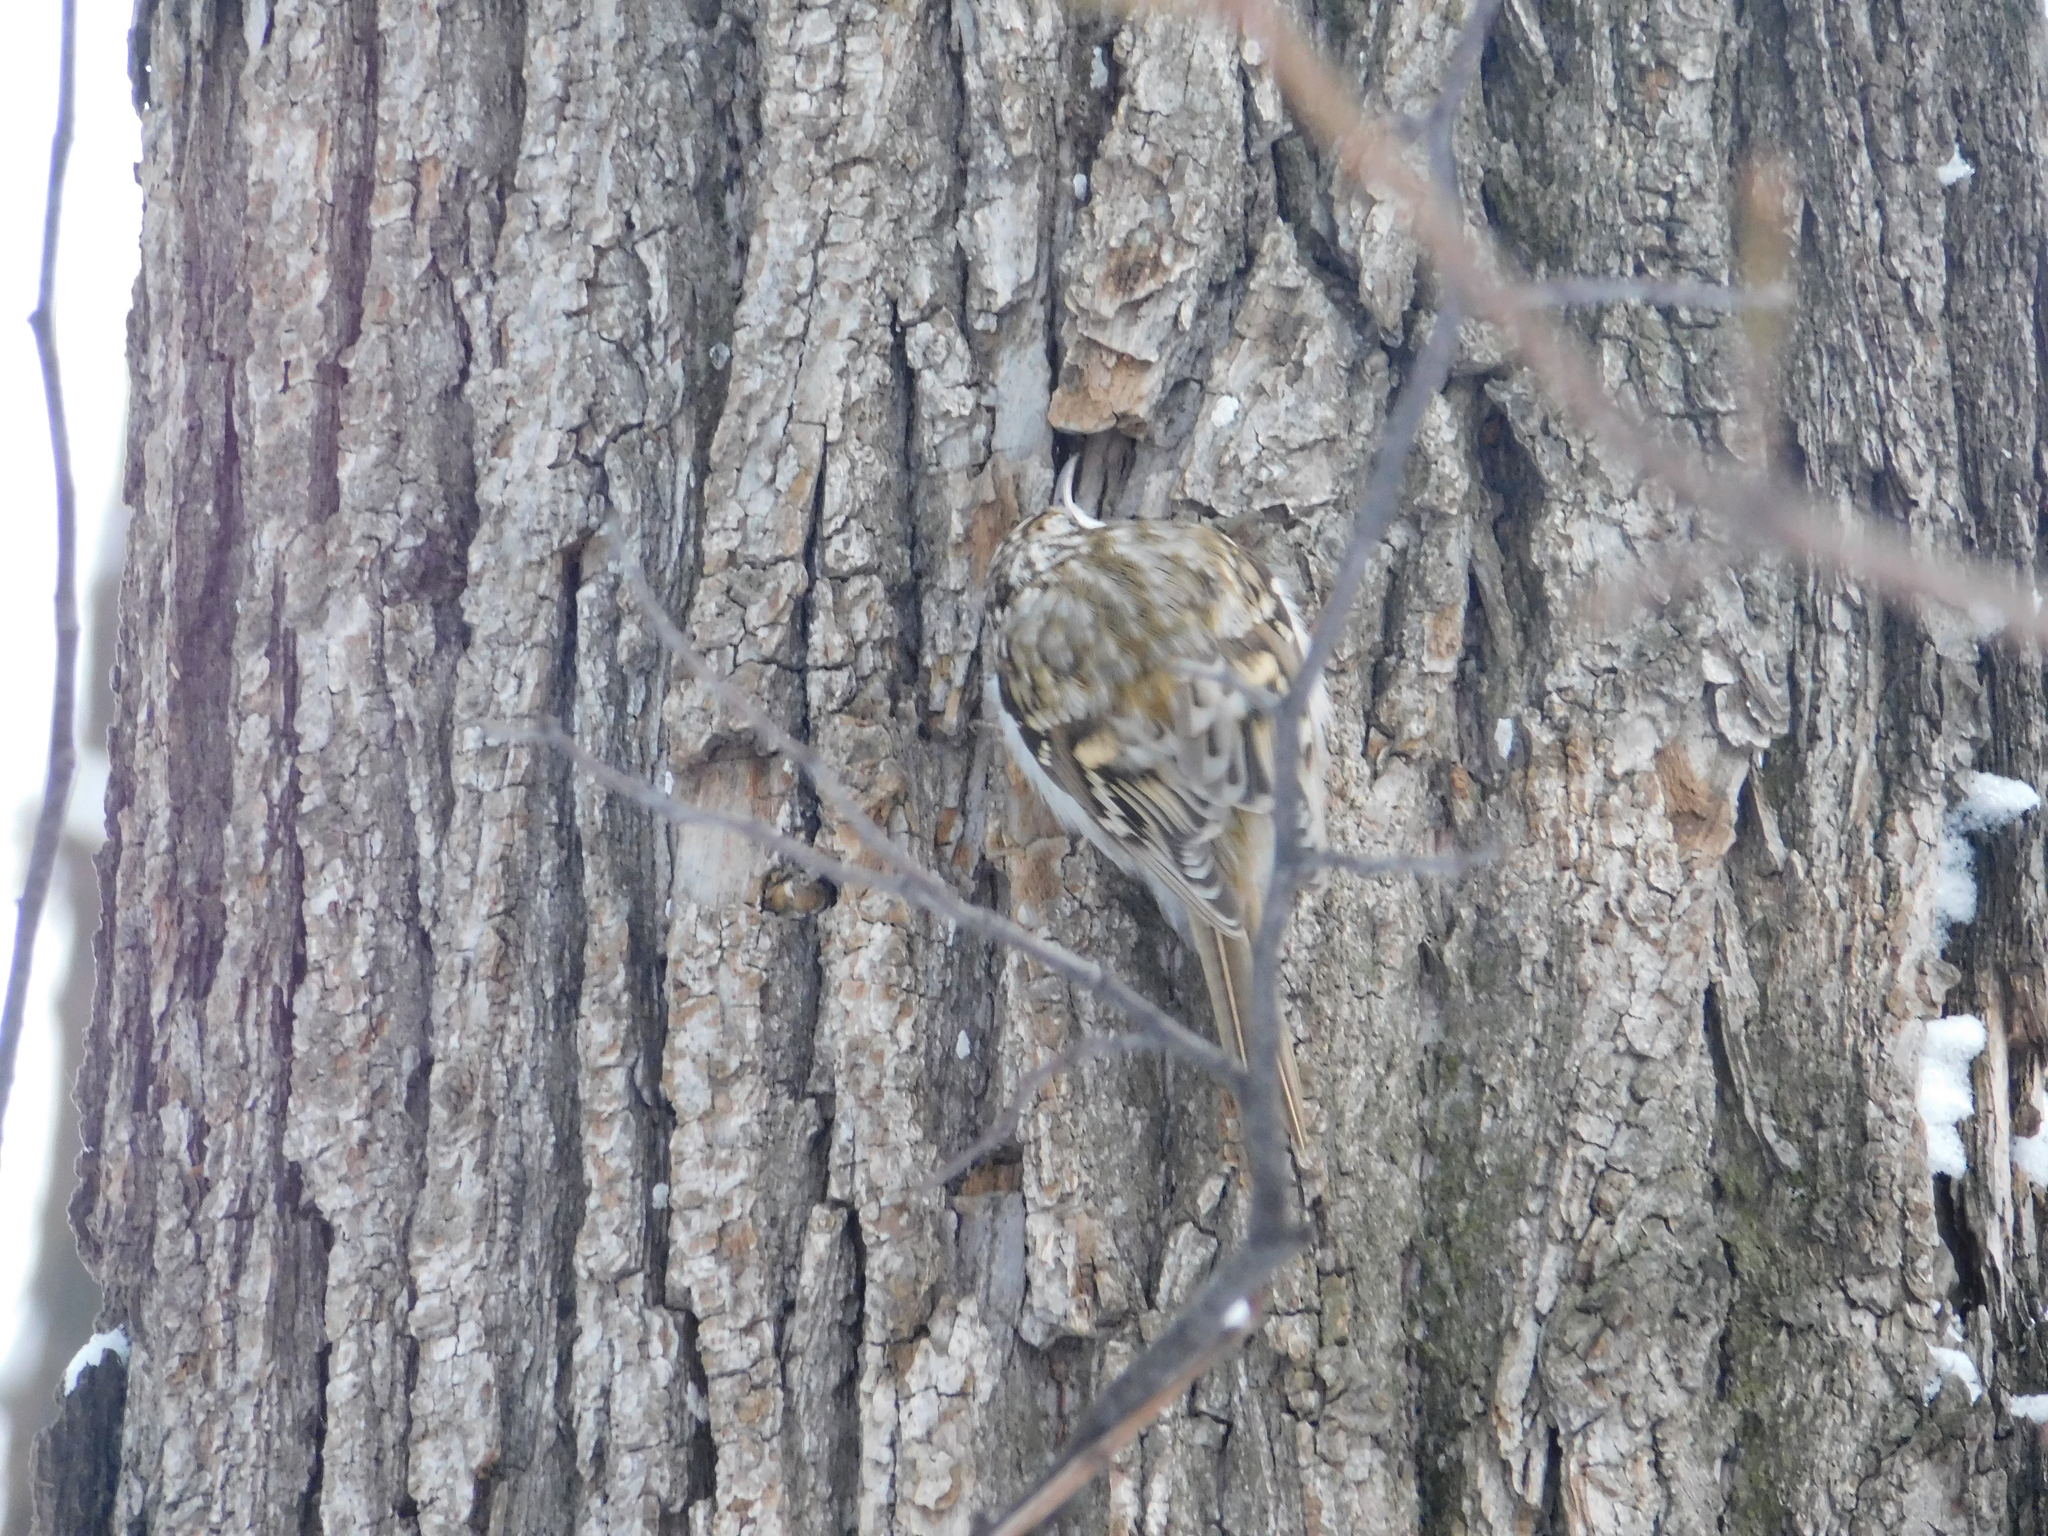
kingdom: Animalia
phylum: Chordata
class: Aves
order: Passeriformes
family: Certhiidae
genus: Certhia
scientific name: Certhia familiaris
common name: Eurasian treecreeper
